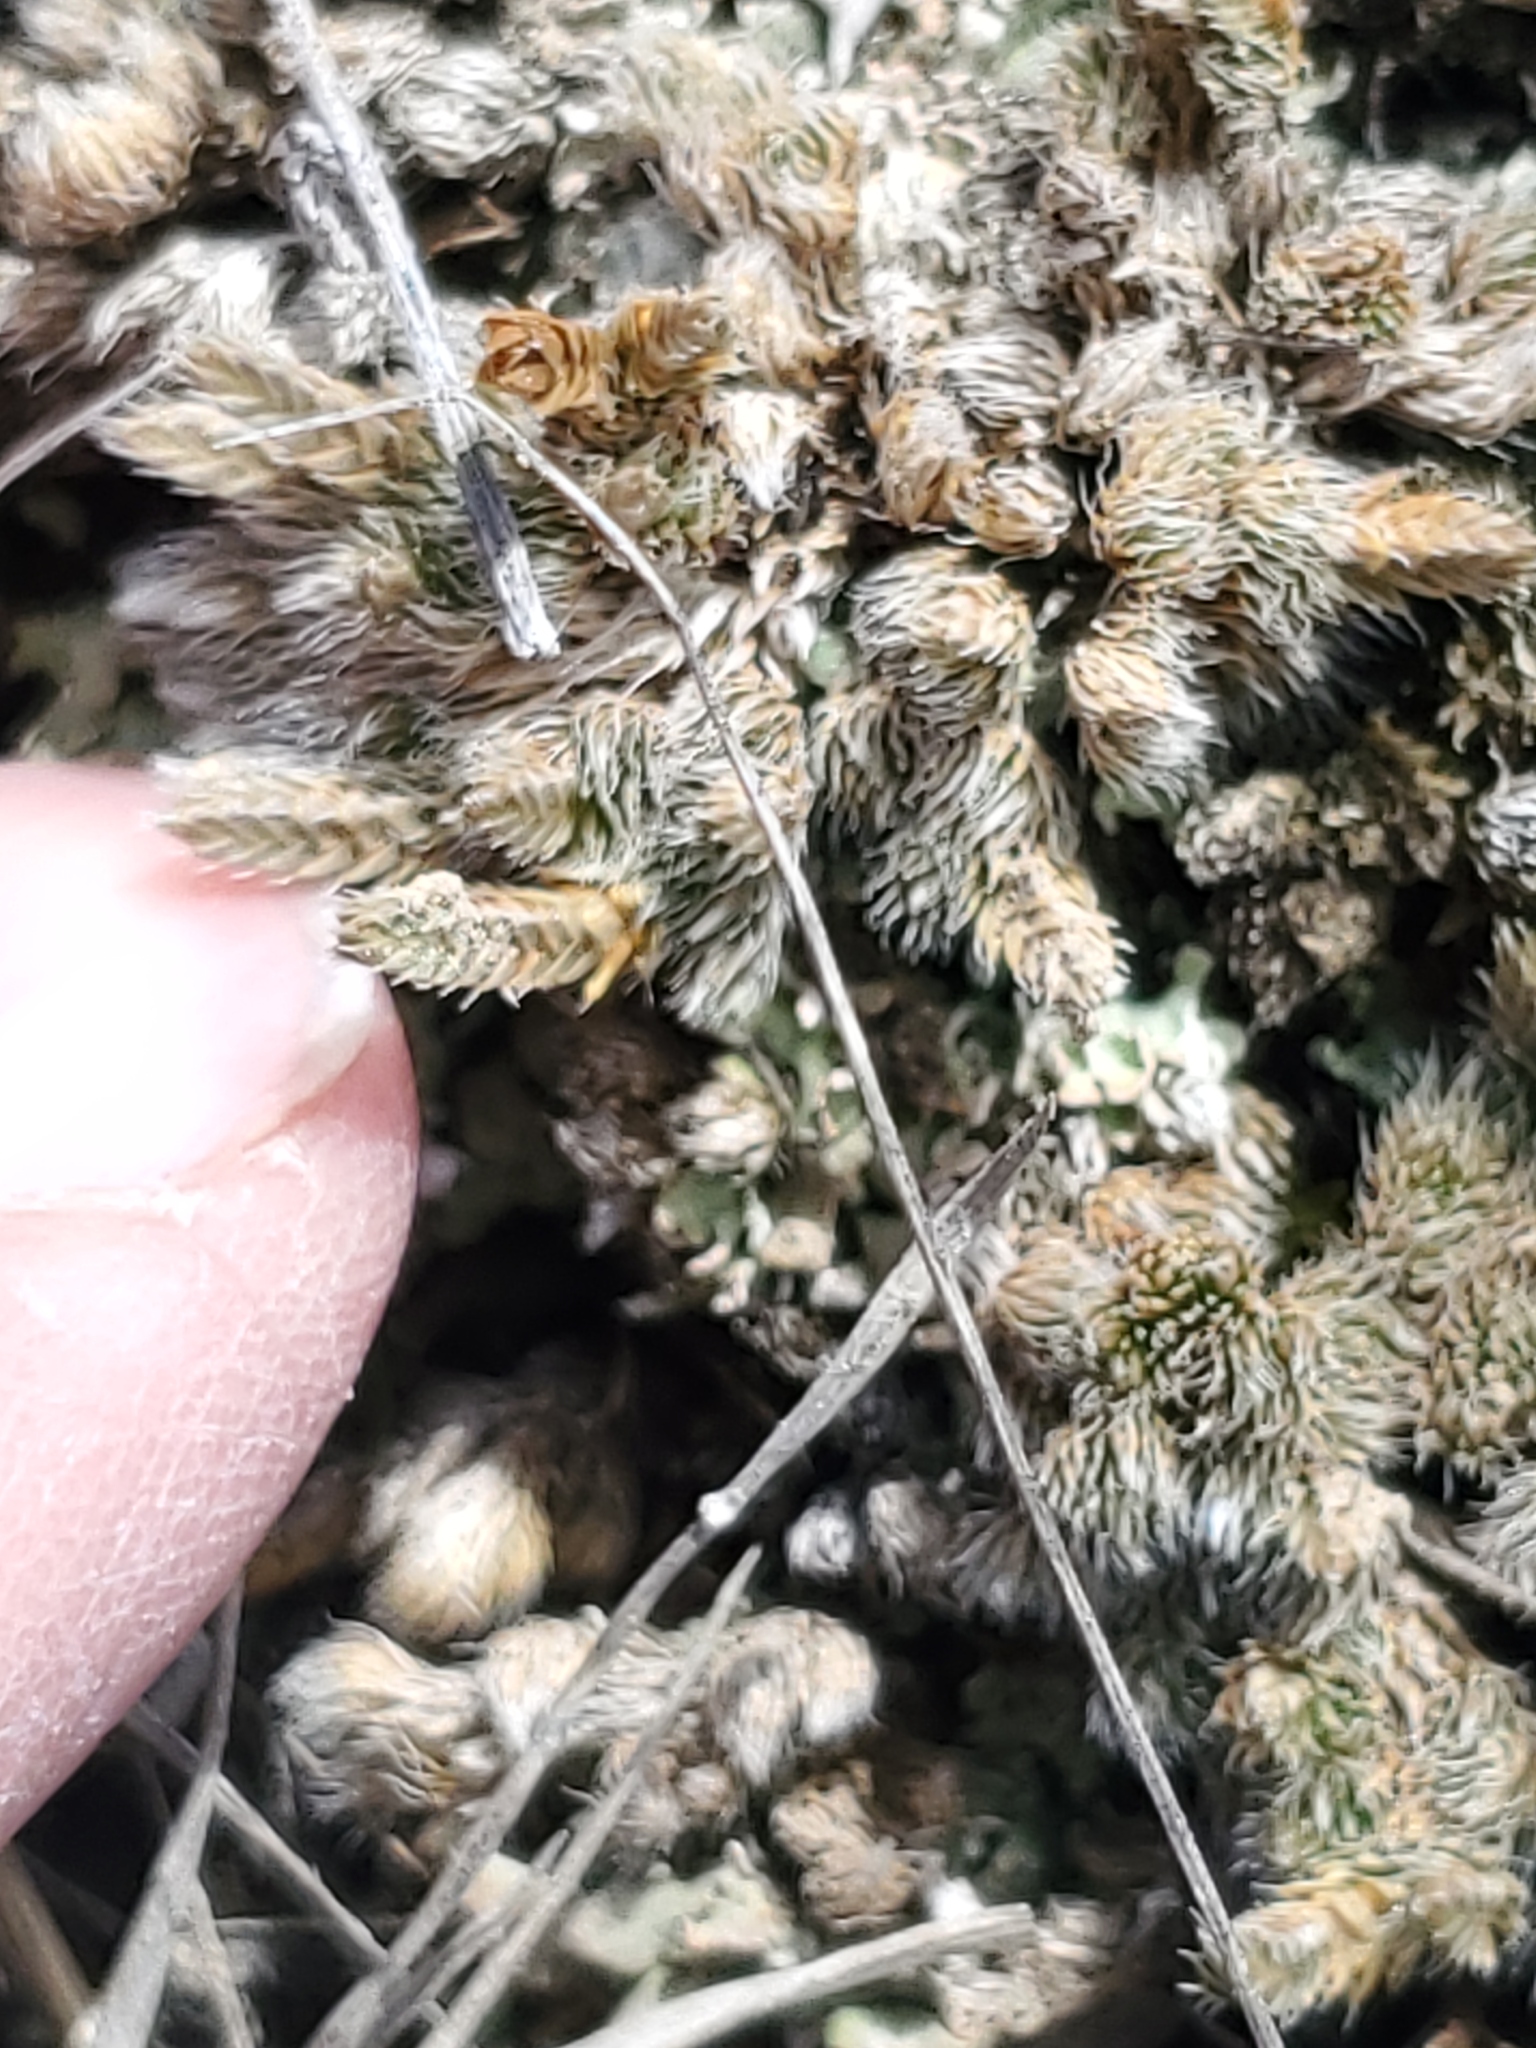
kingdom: Plantae
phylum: Tracheophyta
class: Lycopodiopsida
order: Selaginellales
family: Selaginellaceae
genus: Selaginella
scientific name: Selaginella densa
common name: Mountain spike-moss
